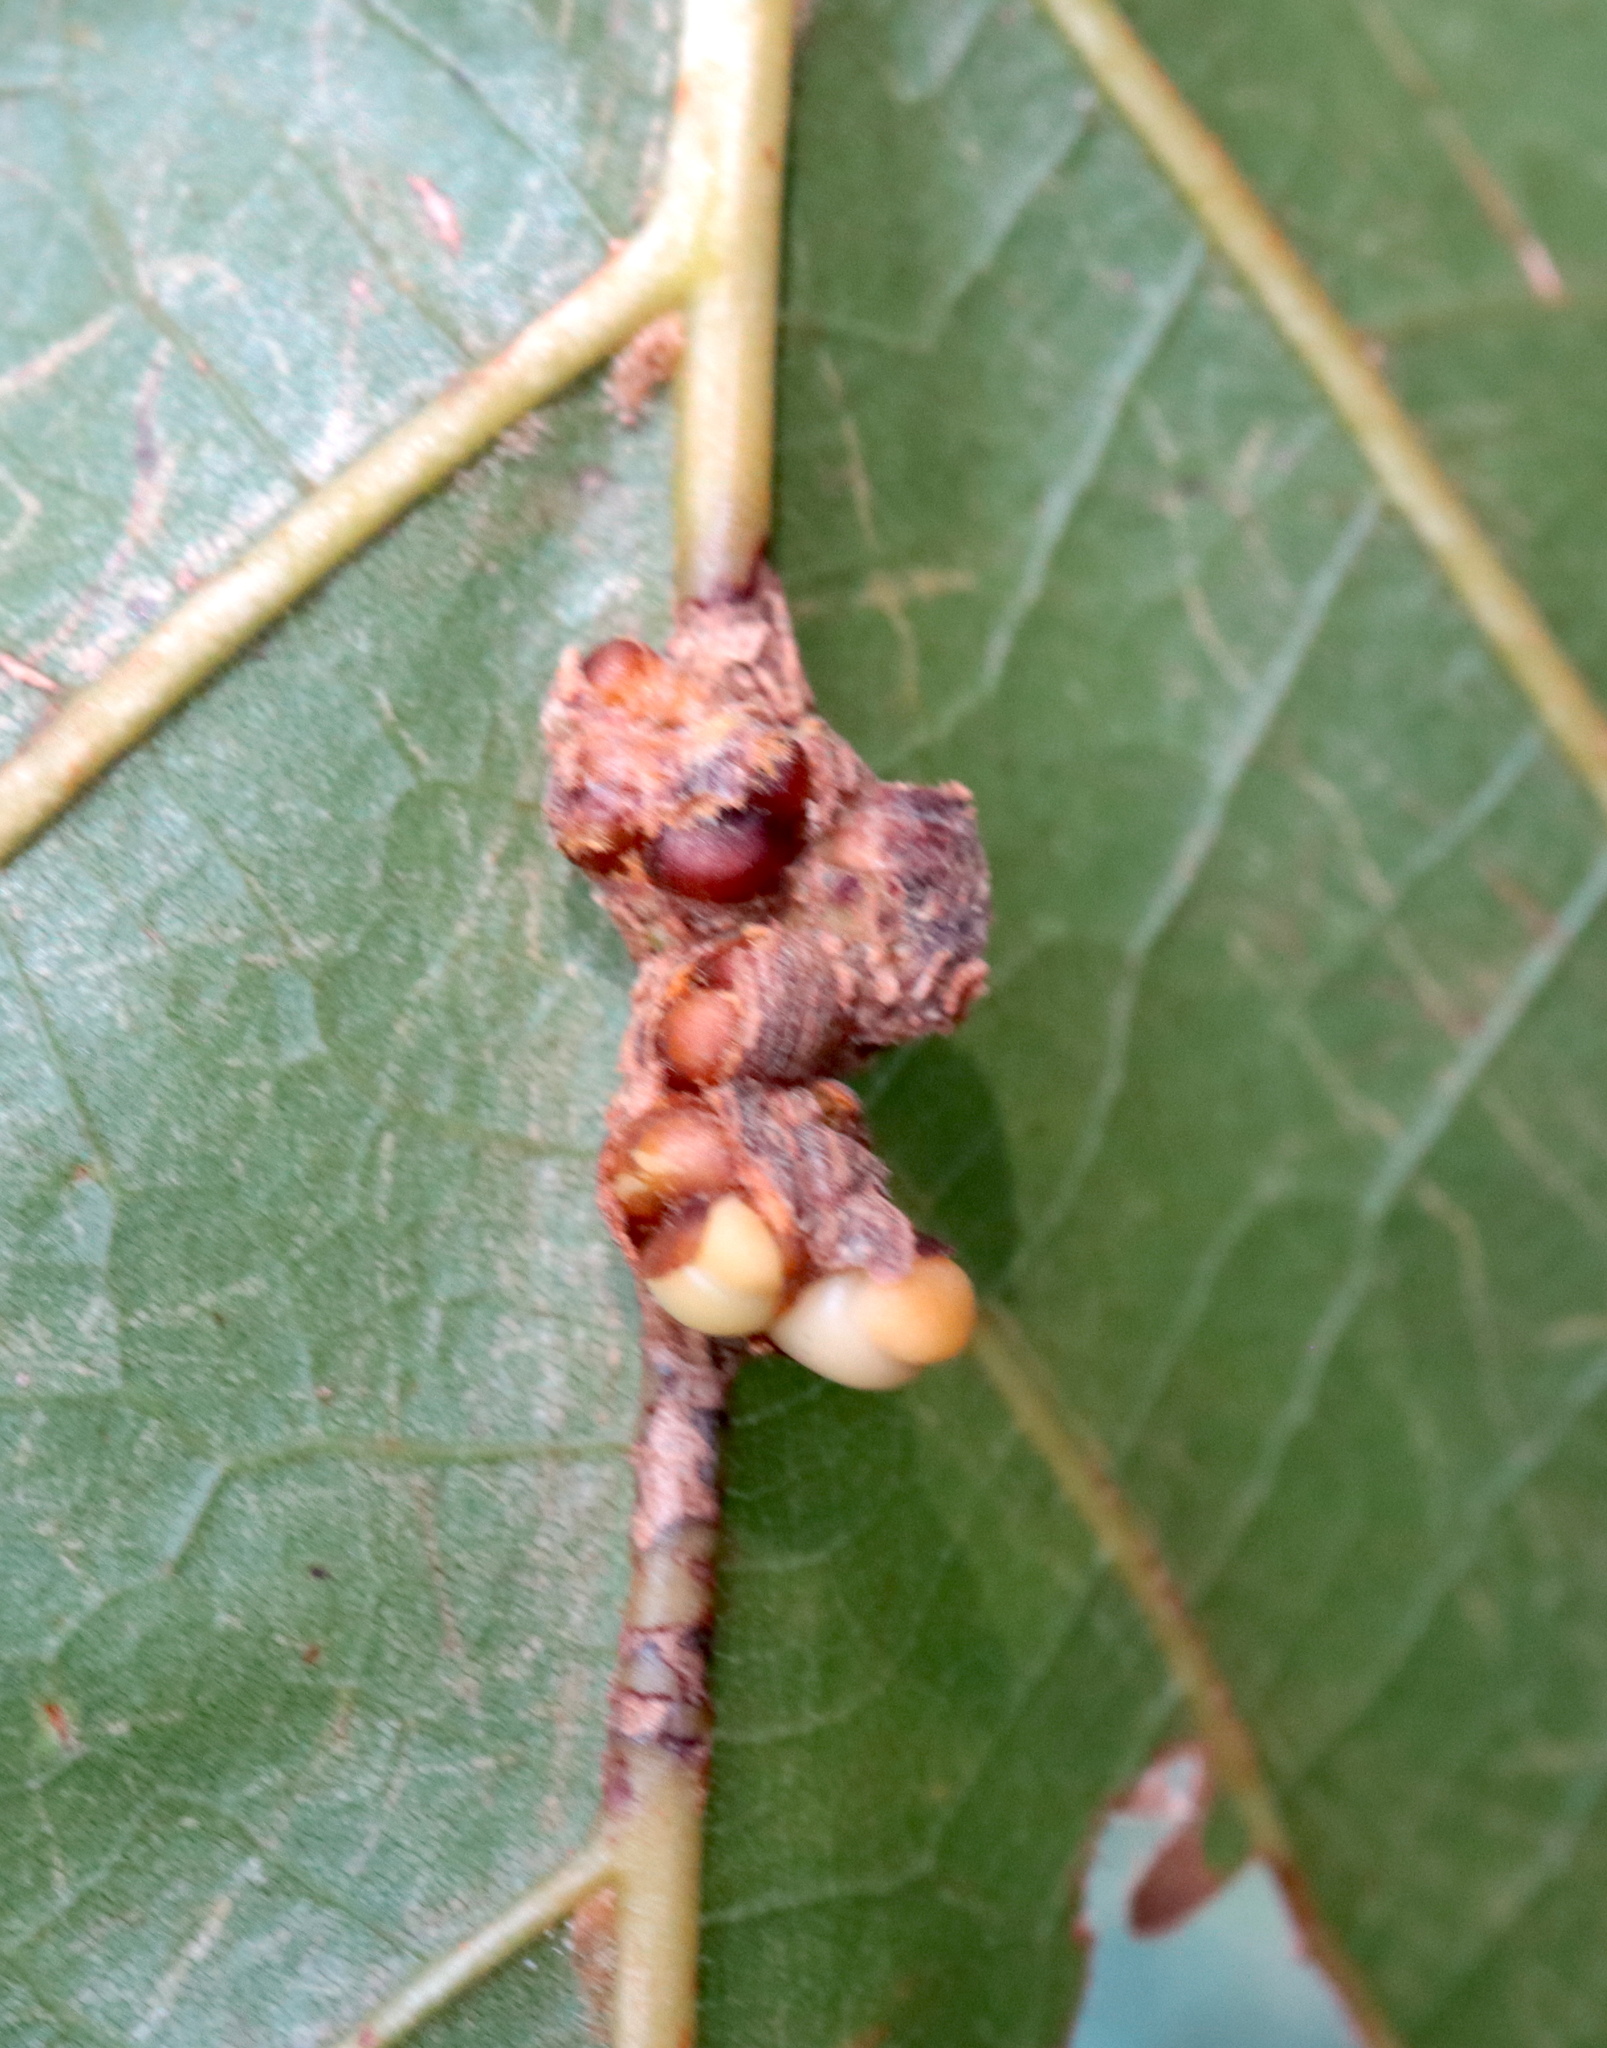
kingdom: Animalia
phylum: Arthropoda
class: Insecta
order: Hymenoptera
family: Cynipidae
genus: Kokkocynips
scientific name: Kokkocynips decidua
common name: Oak wheat gall
